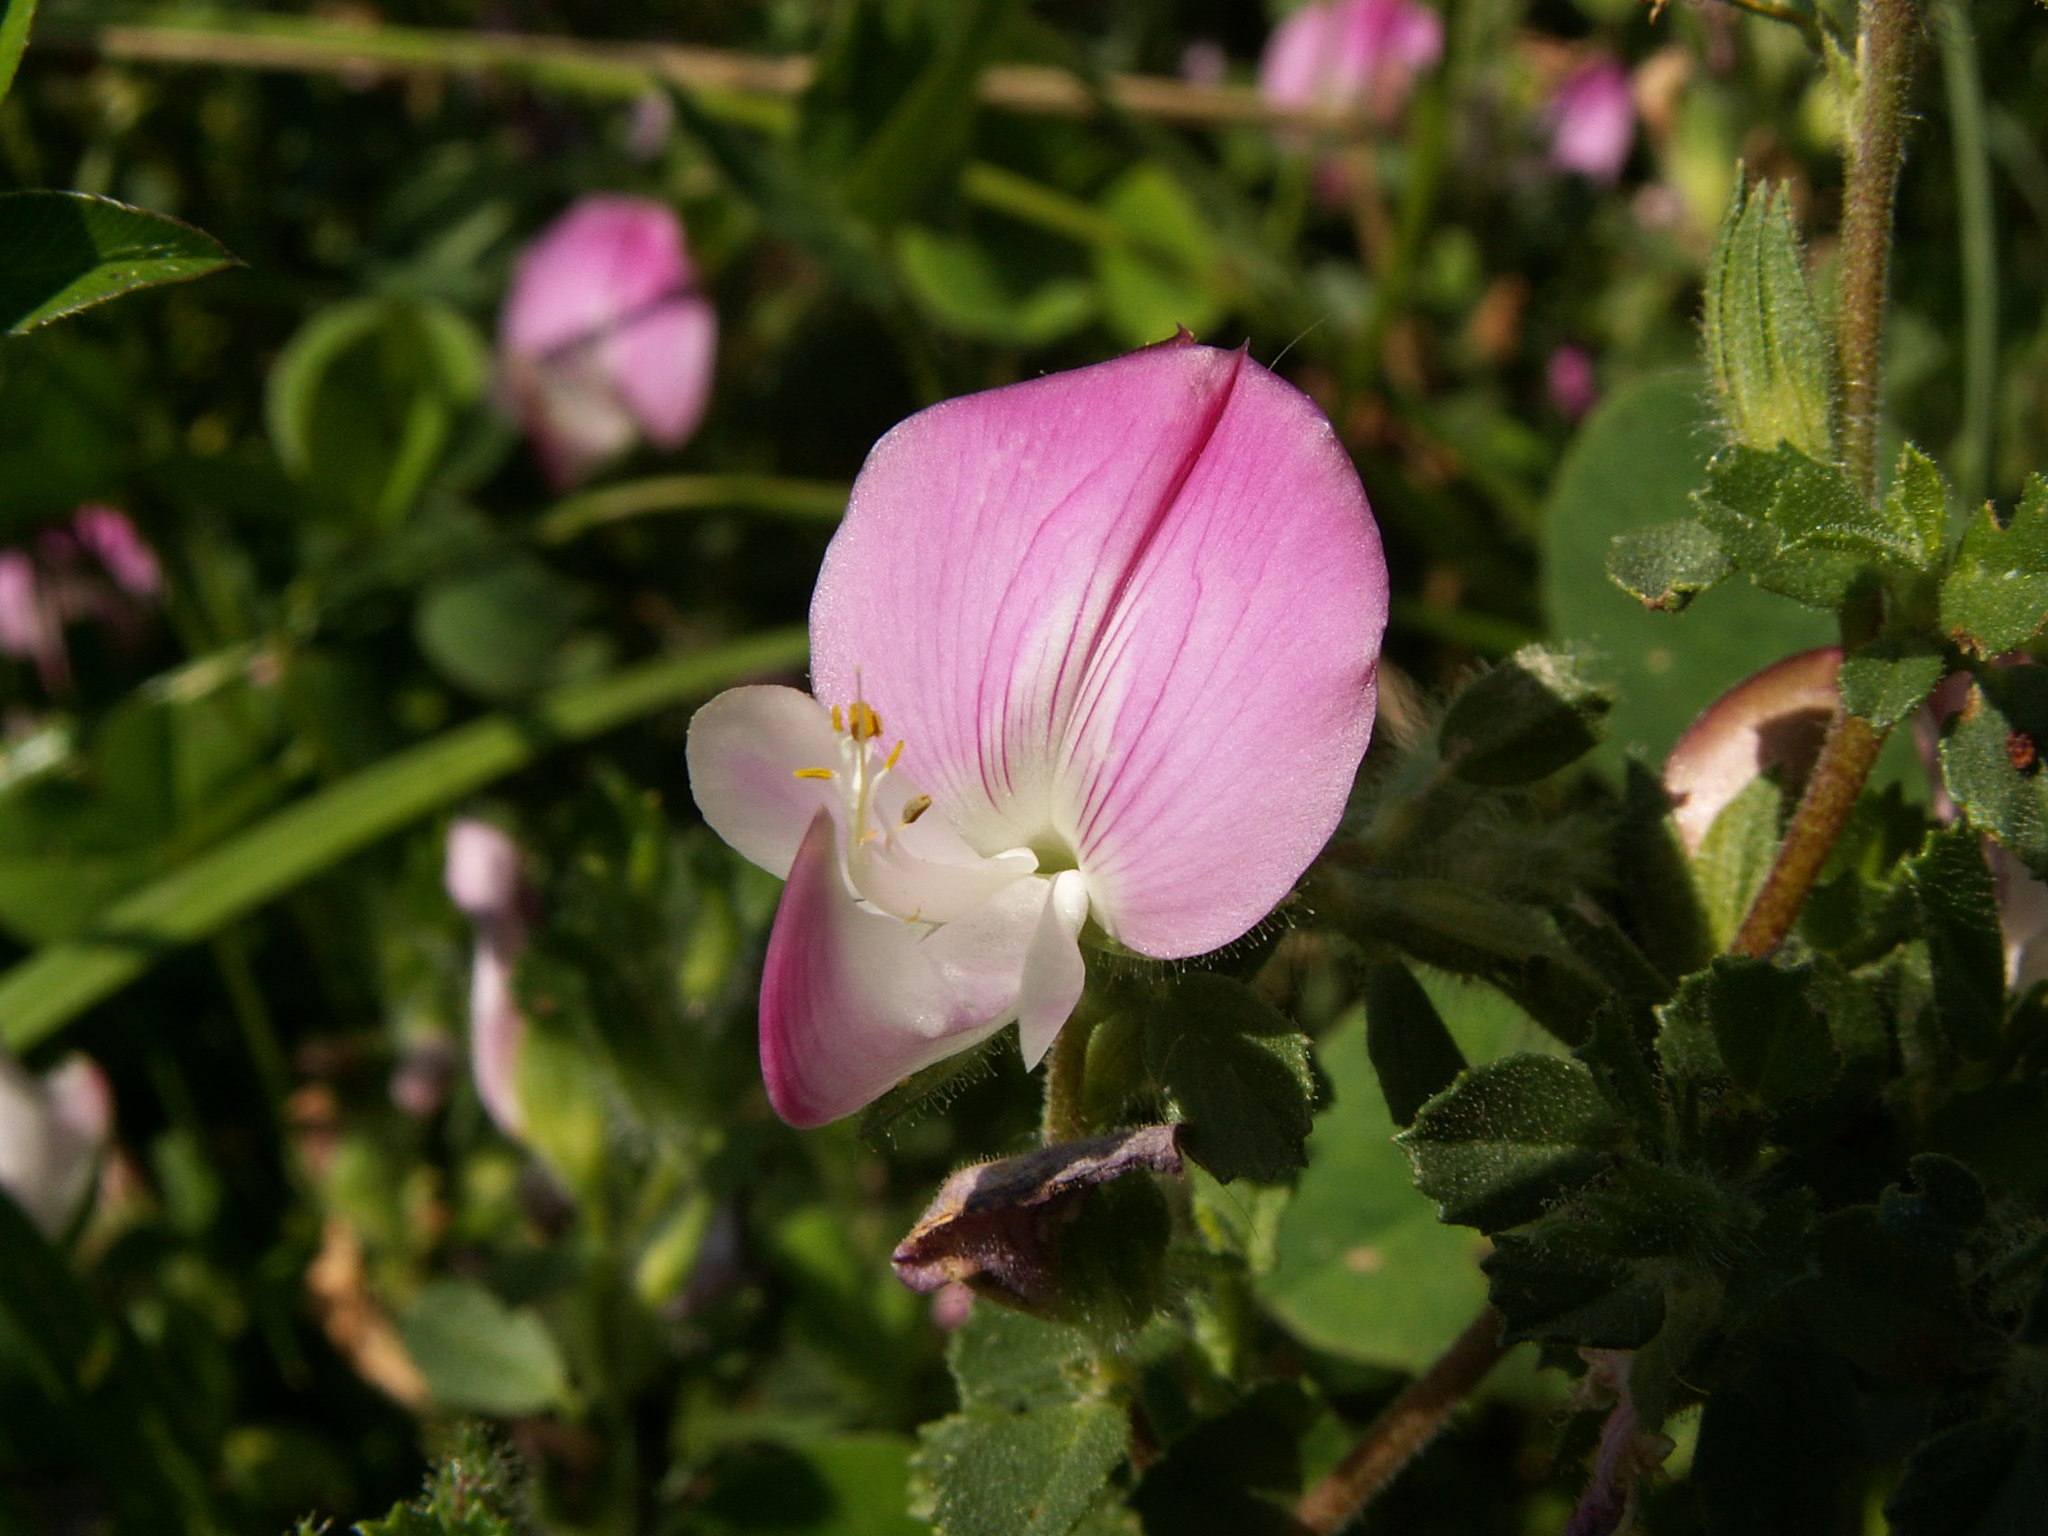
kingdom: Plantae
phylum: Tracheophyta
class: Magnoliopsida
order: Fabales
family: Fabaceae
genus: Ononis
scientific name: Ononis spinosa
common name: Spiny restharrow
